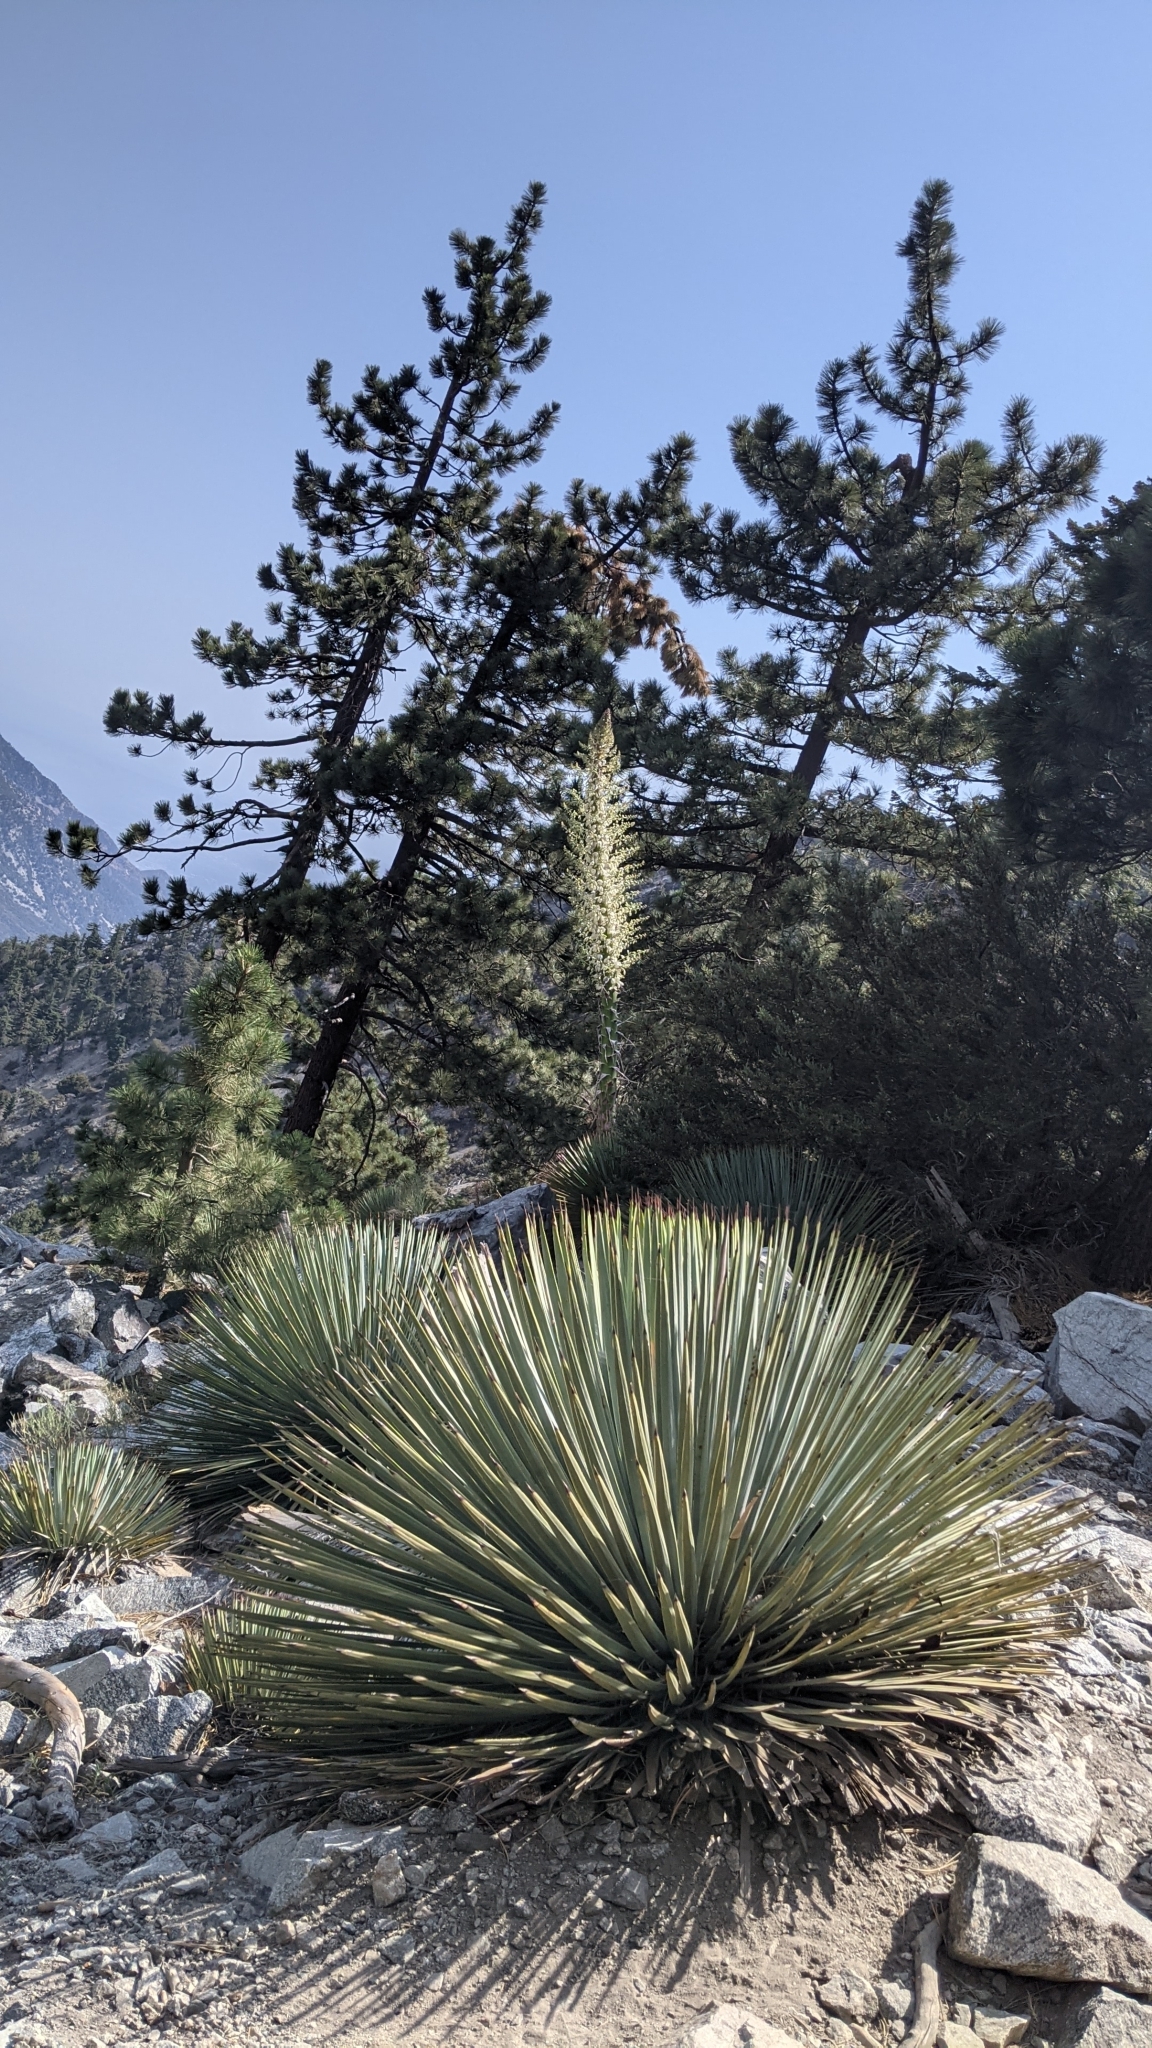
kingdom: Plantae
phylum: Tracheophyta
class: Liliopsida
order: Asparagales
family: Asparagaceae
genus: Hesperoyucca
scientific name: Hesperoyucca whipplei
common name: Our lord's-candle
